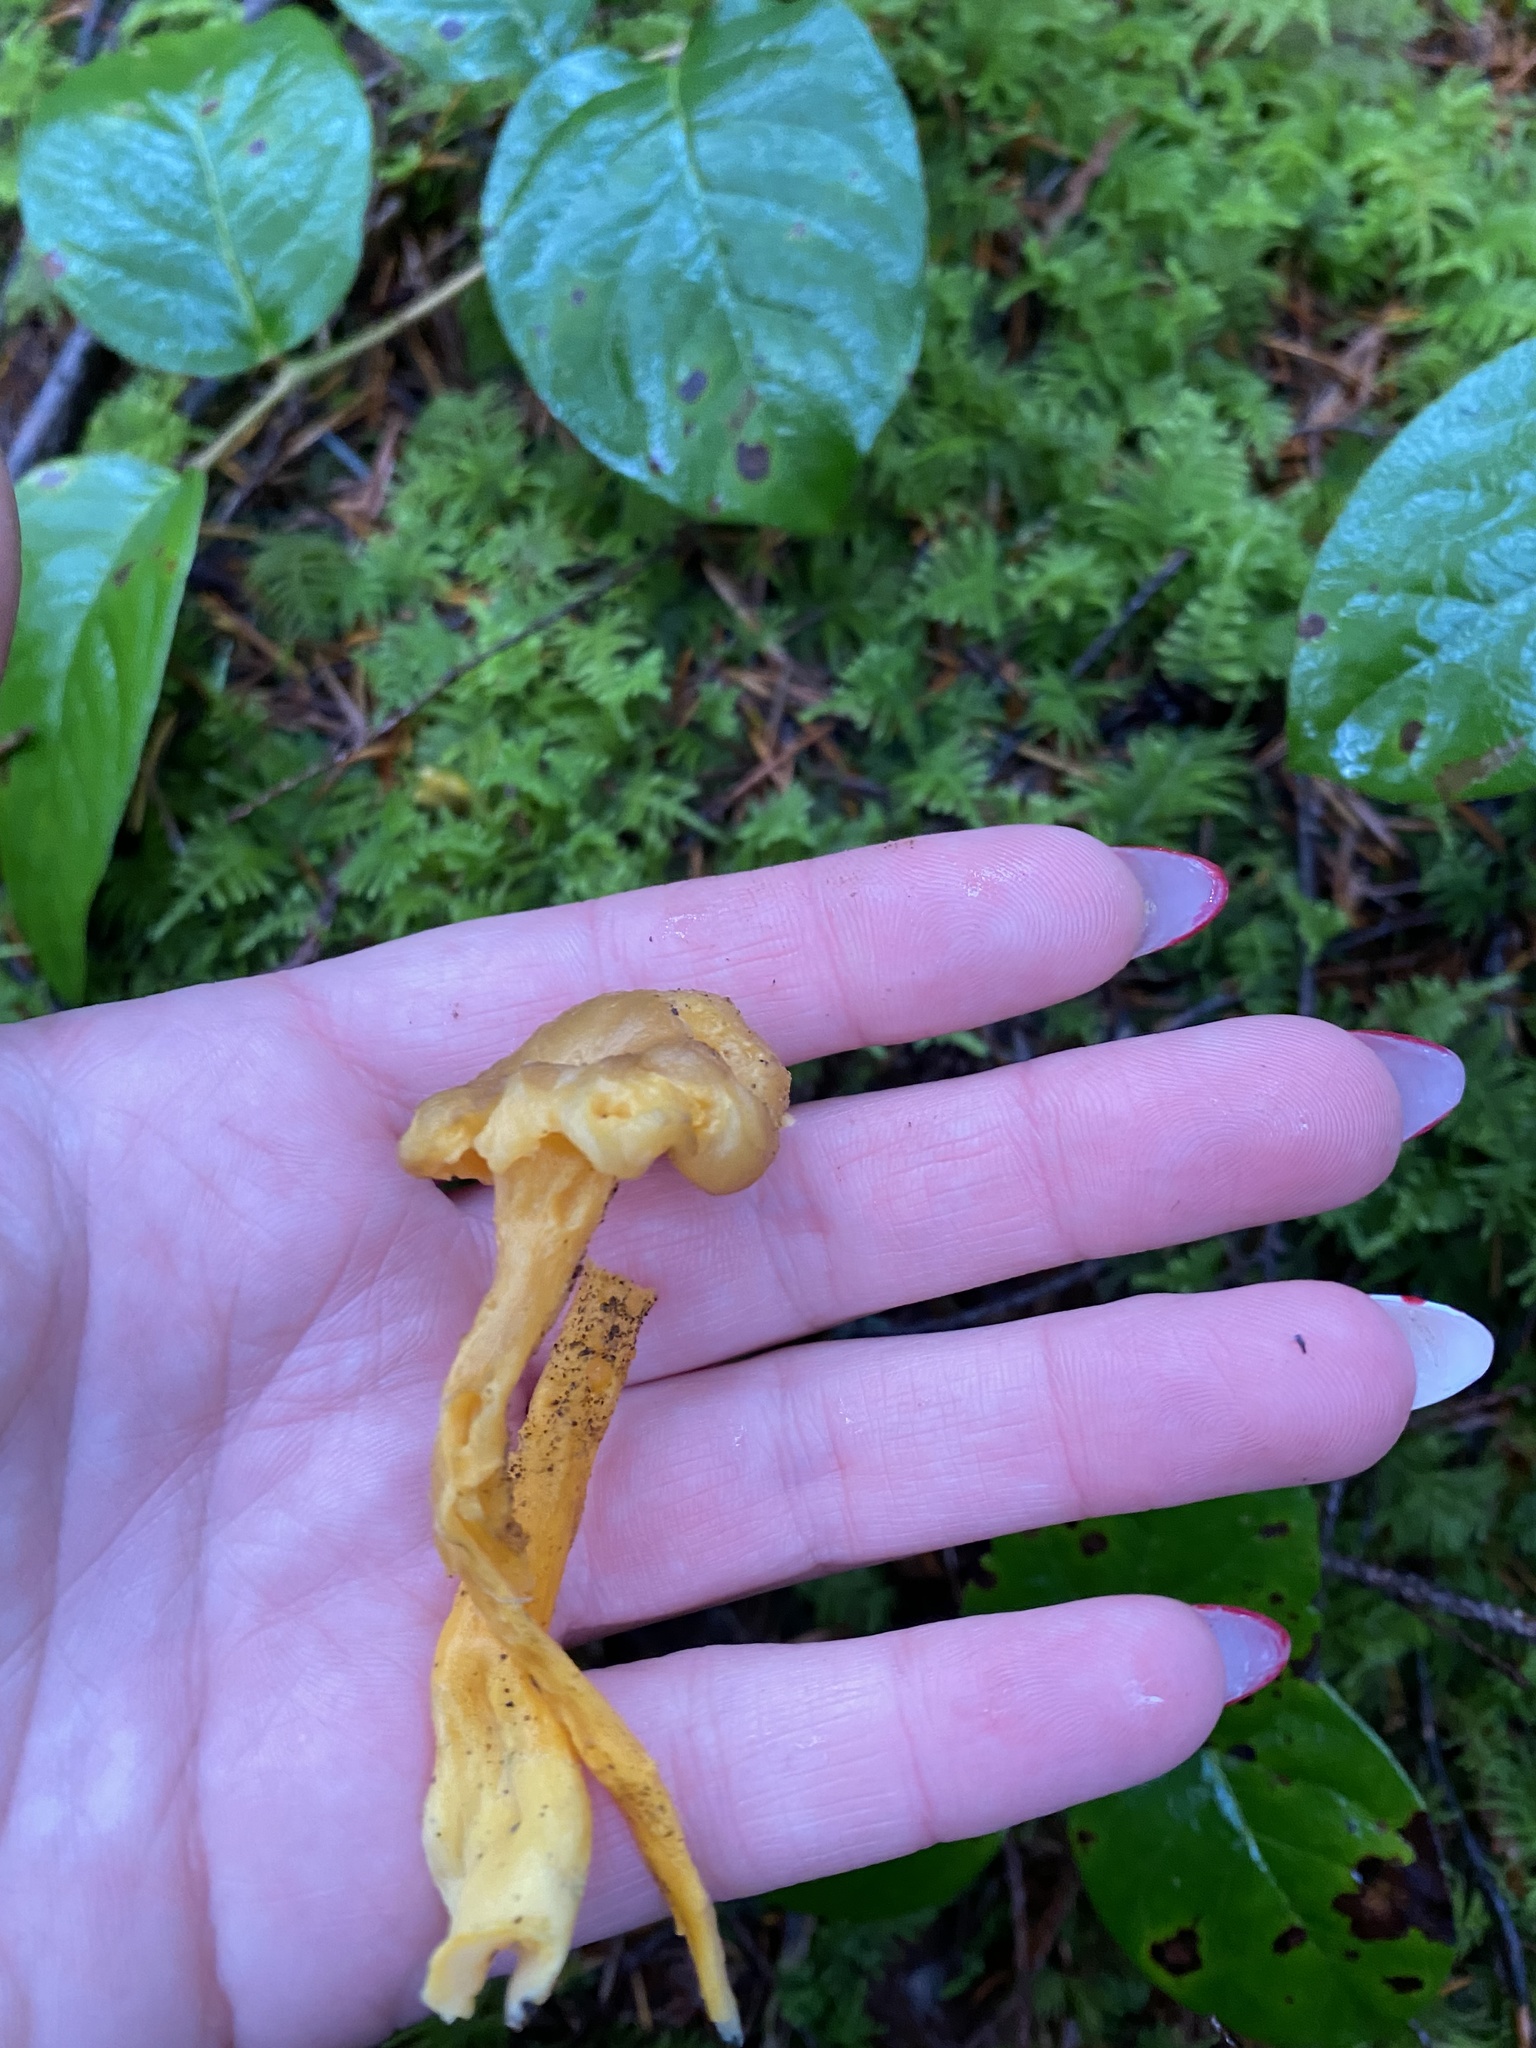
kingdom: Fungi
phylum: Basidiomycota
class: Agaricomycetes
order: Cantharellales
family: Hydnaceae
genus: Craterellus
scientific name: Craterellus tubaeformis
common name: Yellowfoot
